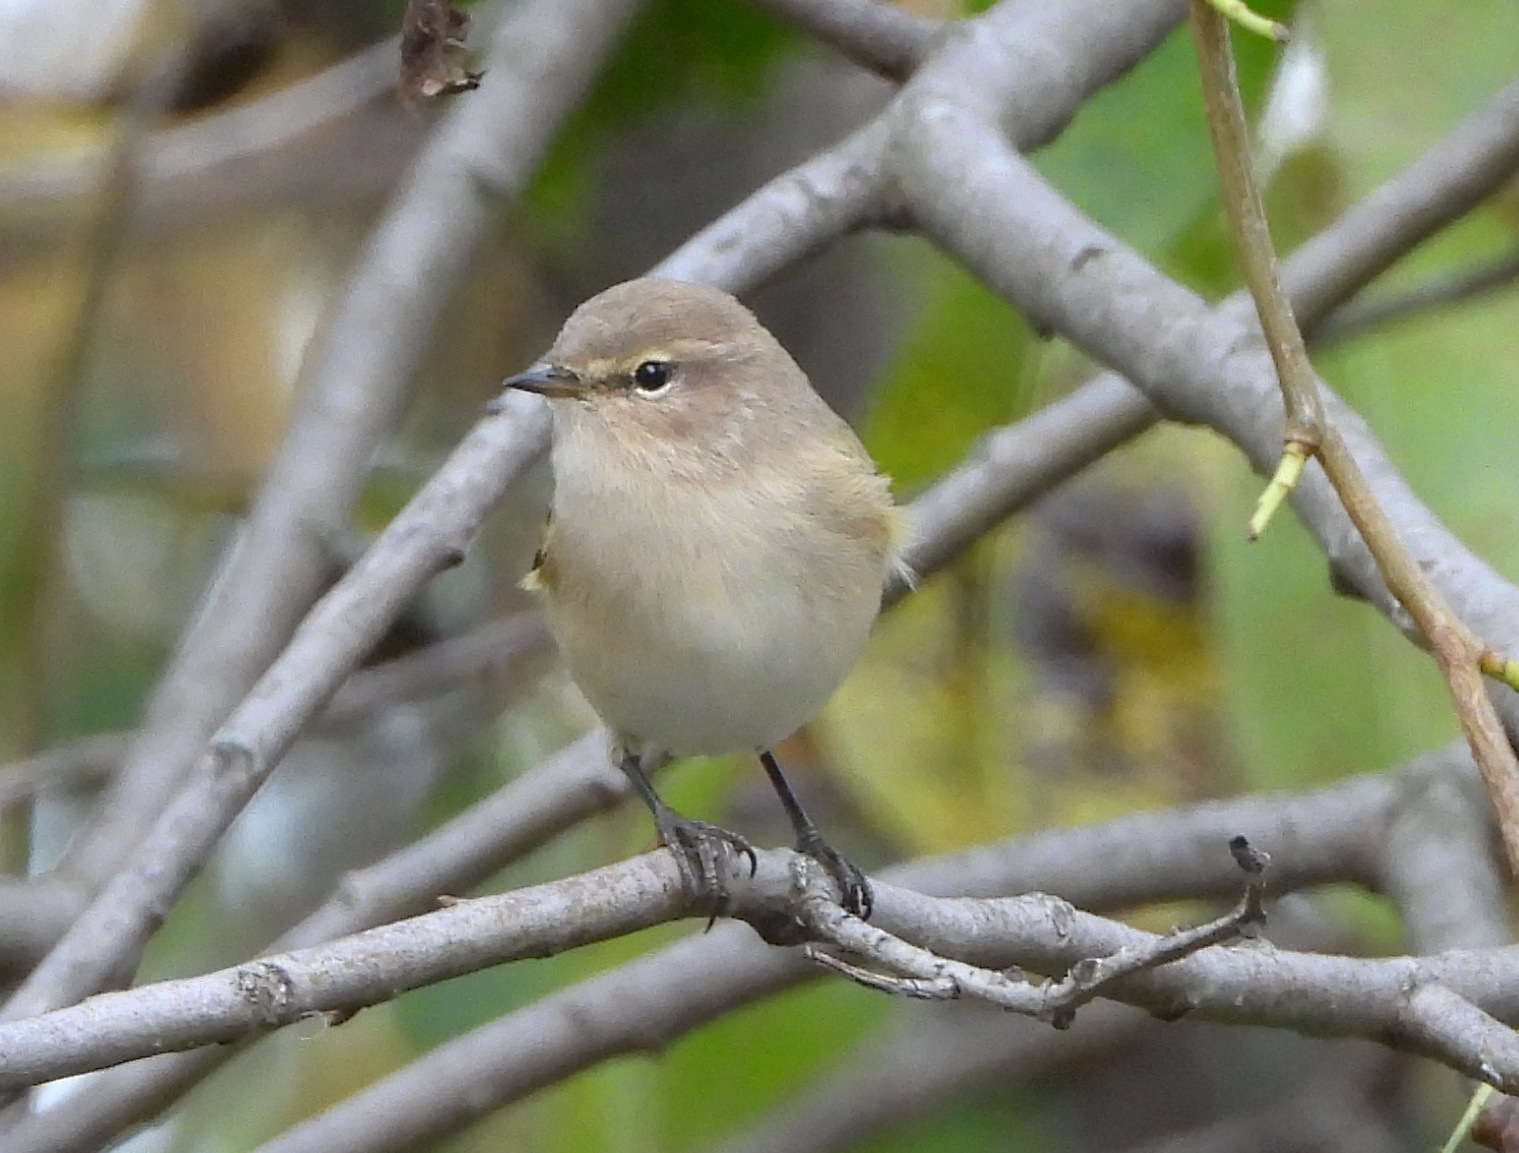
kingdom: Animalia
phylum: Chordata
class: Aves
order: Passeriformes
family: Phylloscopidae
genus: Phylloscopus
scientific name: Phylloscopus collybita
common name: Common chiffchaff
